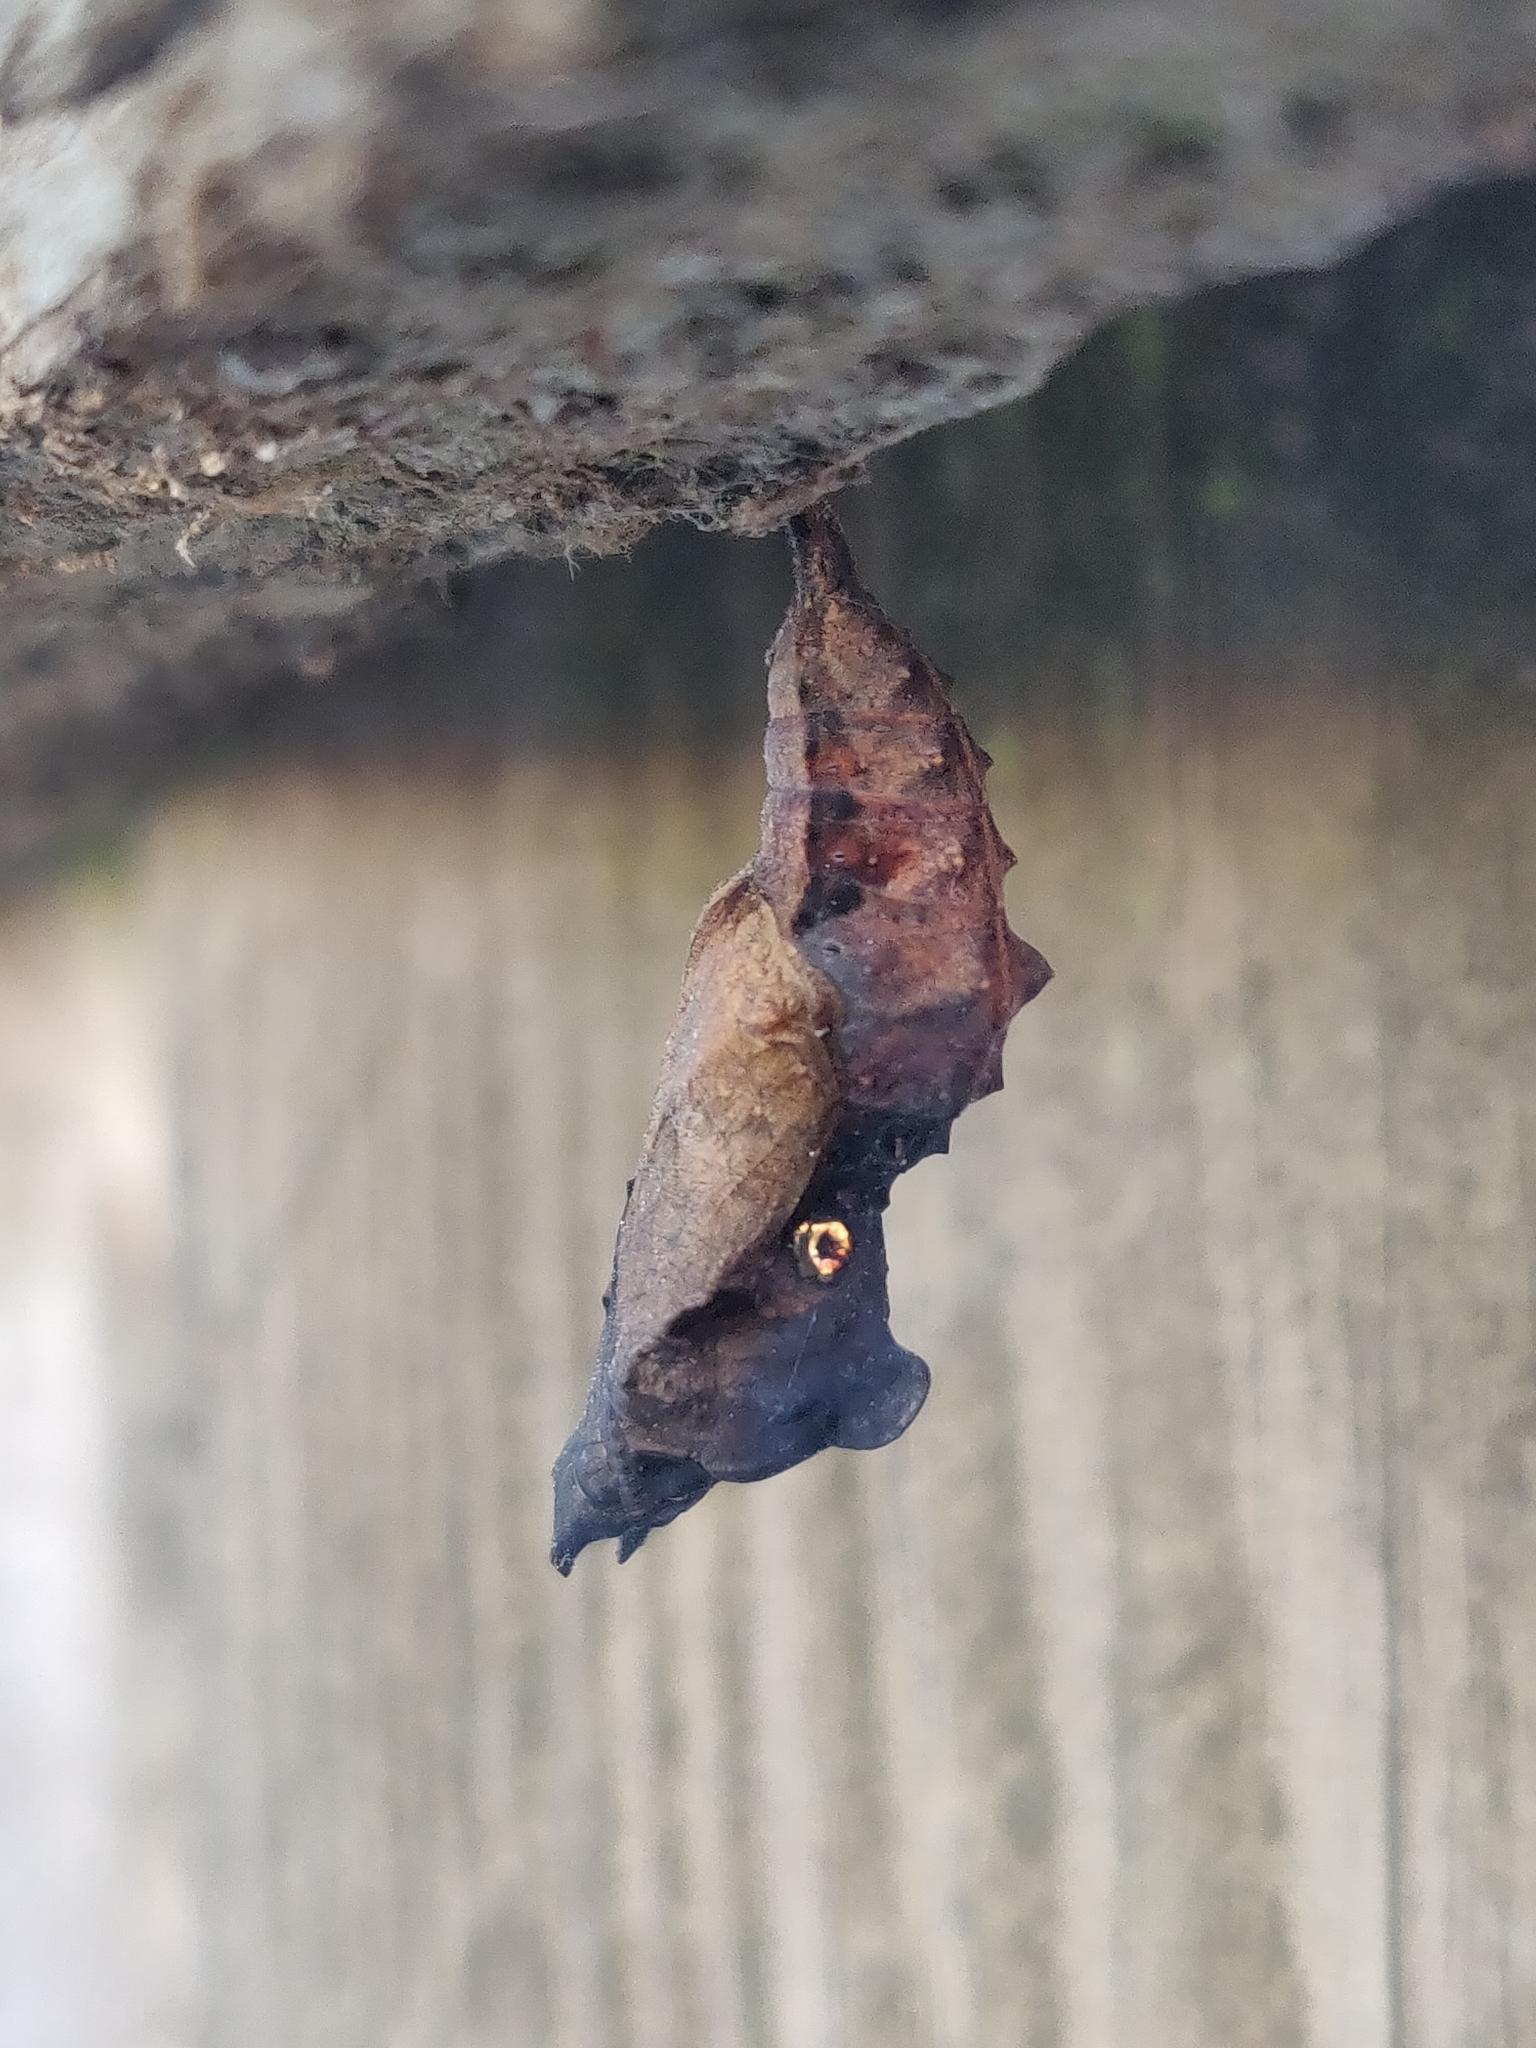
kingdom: Animalia
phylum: Arthropoda
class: Insecta
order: Lepidoptera
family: Nymphalidae
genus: Polygonia
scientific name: Polygonia c-album
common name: Comma
